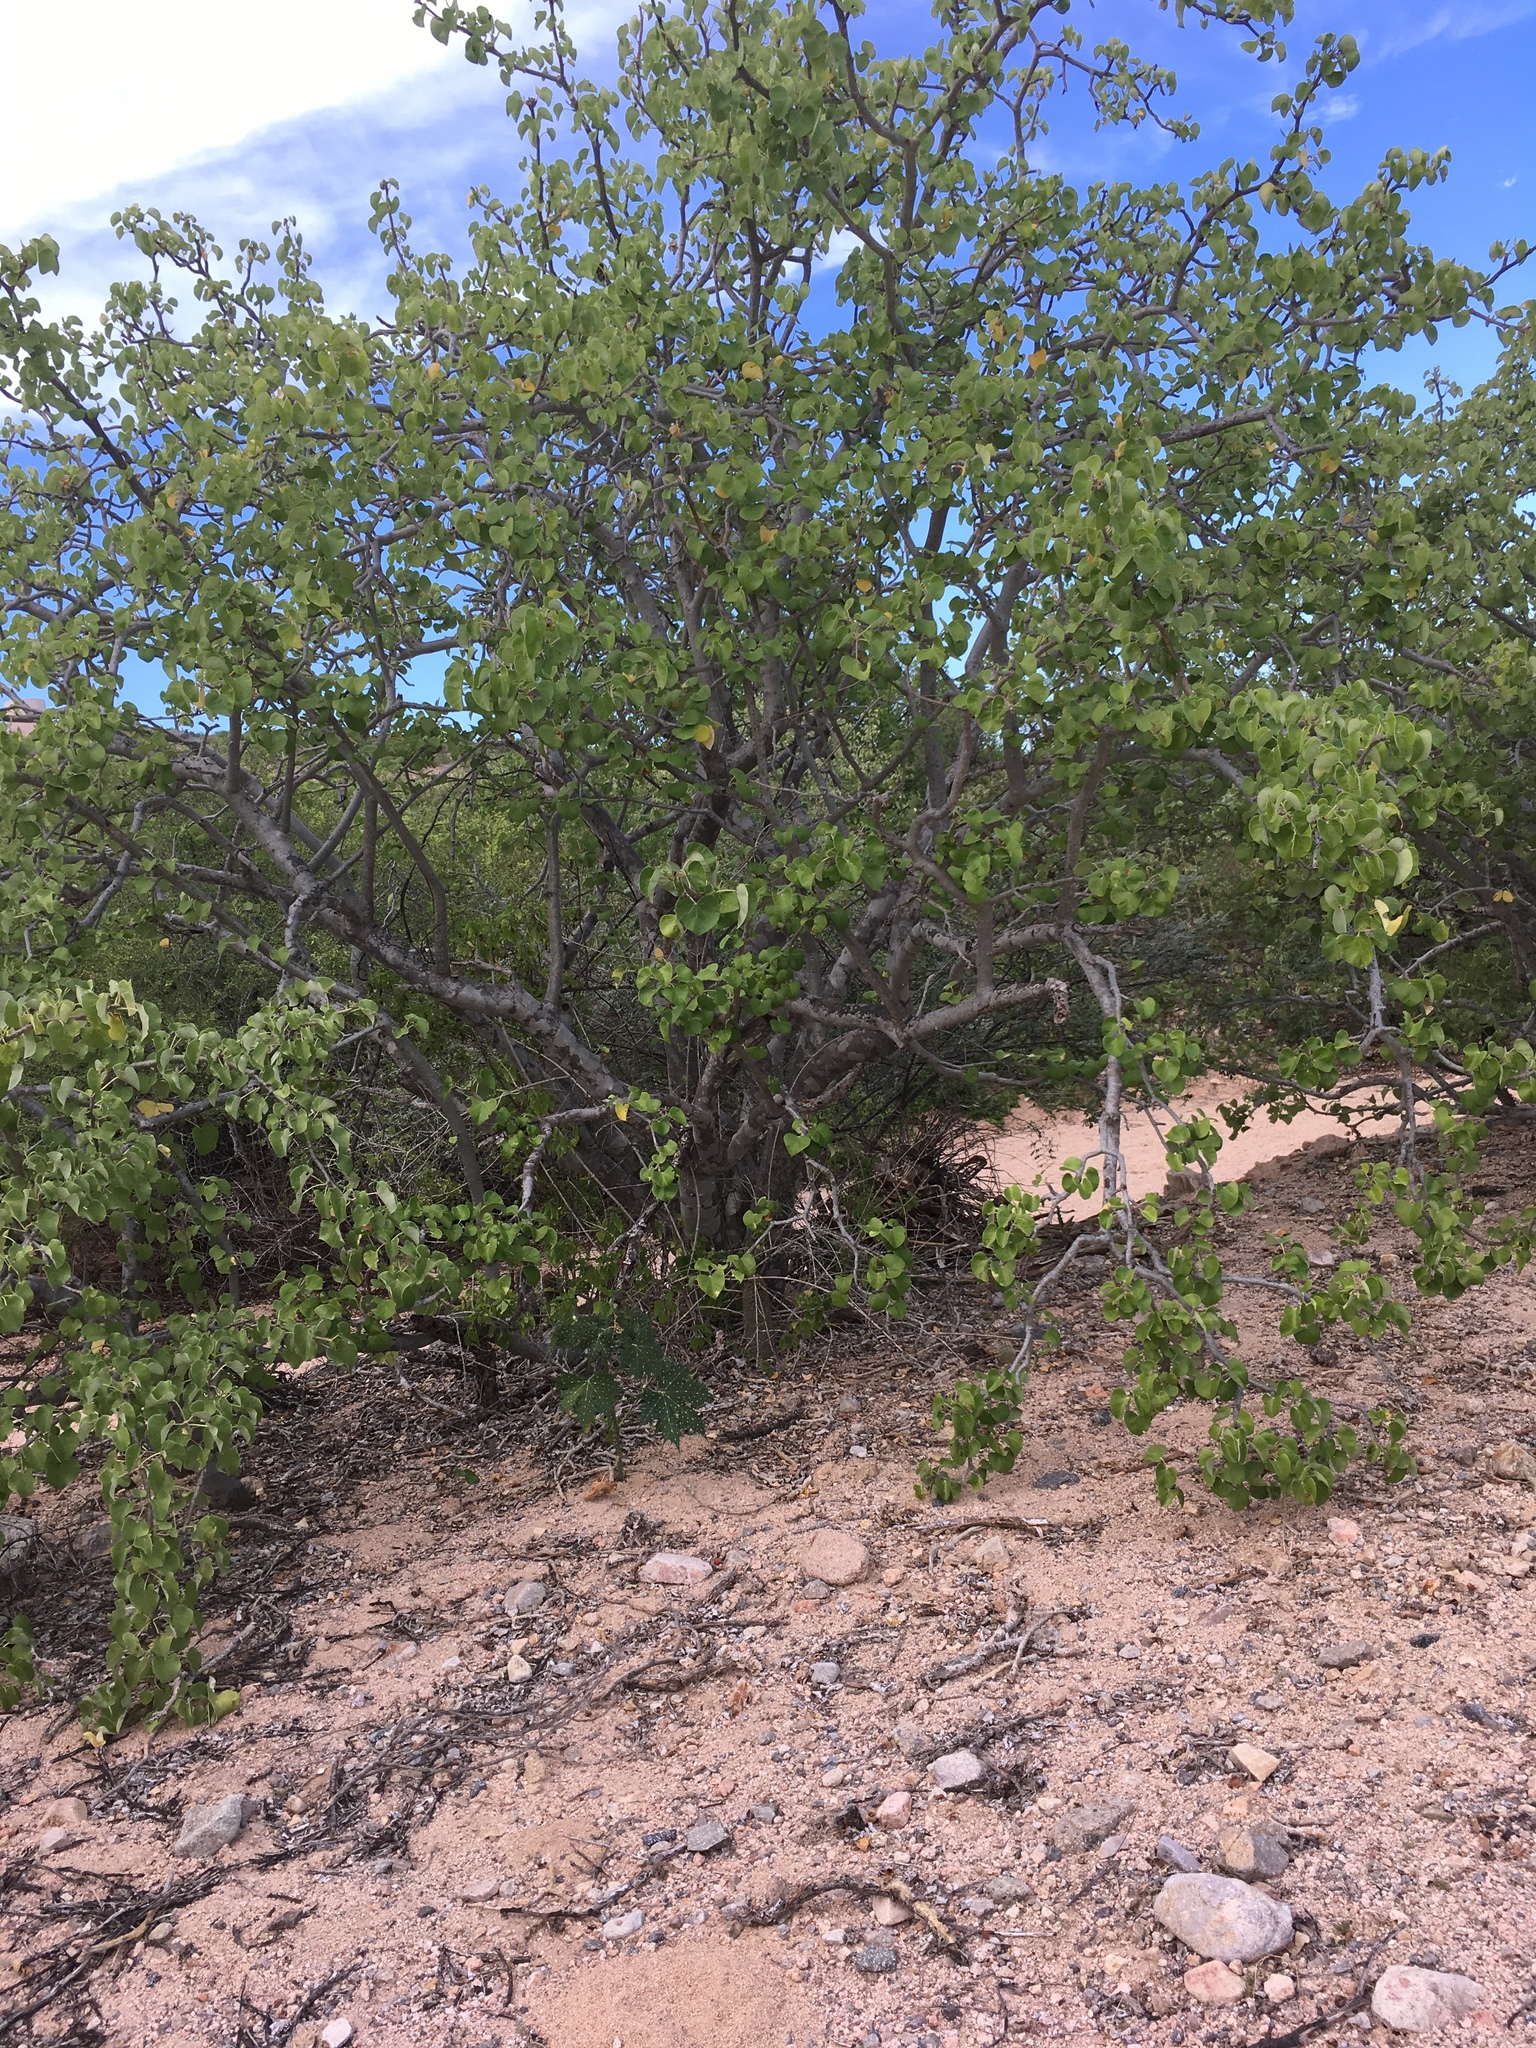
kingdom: Plantae
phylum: Tracheophyta
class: Magnoliopsida
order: Malpighiales
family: Euphorbiaceae
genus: Jatropha
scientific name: Jatropha cinerea
